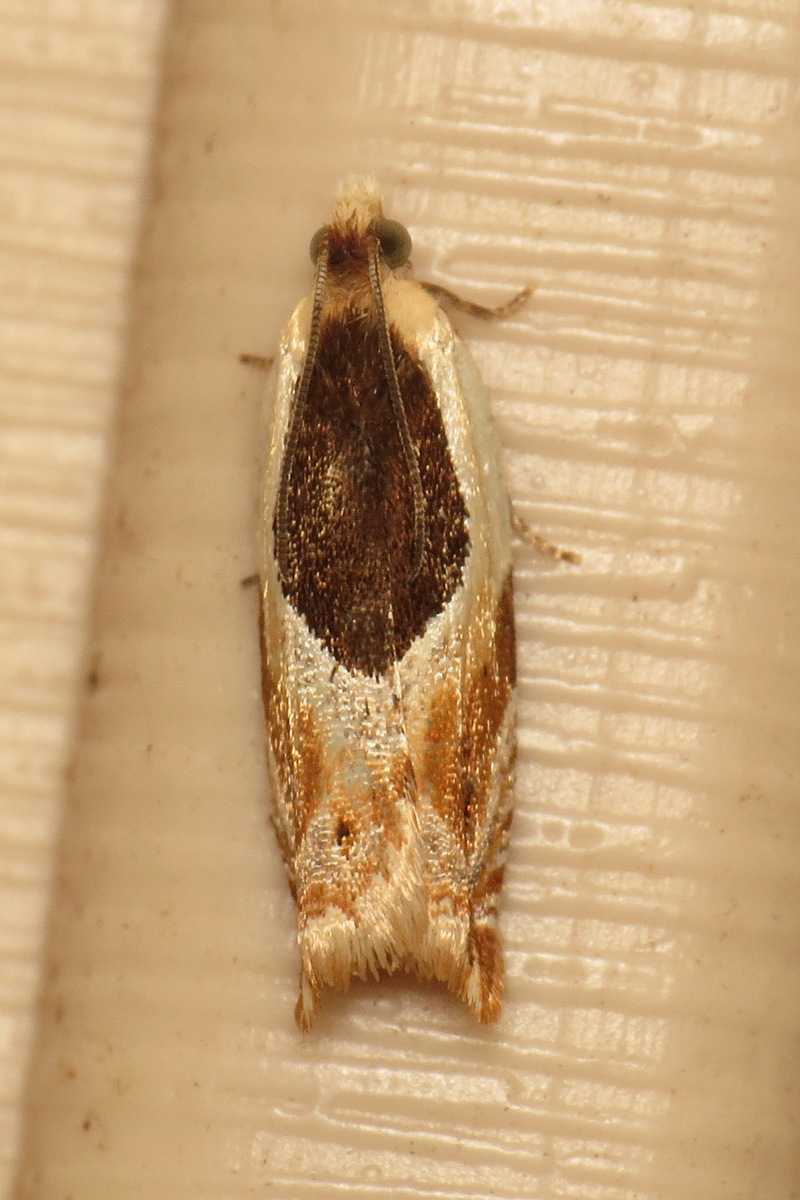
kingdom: Animalia
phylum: Arthropoda
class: Insecta
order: Lepidoptera
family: Tortricidae
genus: Ancylis
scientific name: Ancylis burgessiana
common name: Oak leaffolder moth
